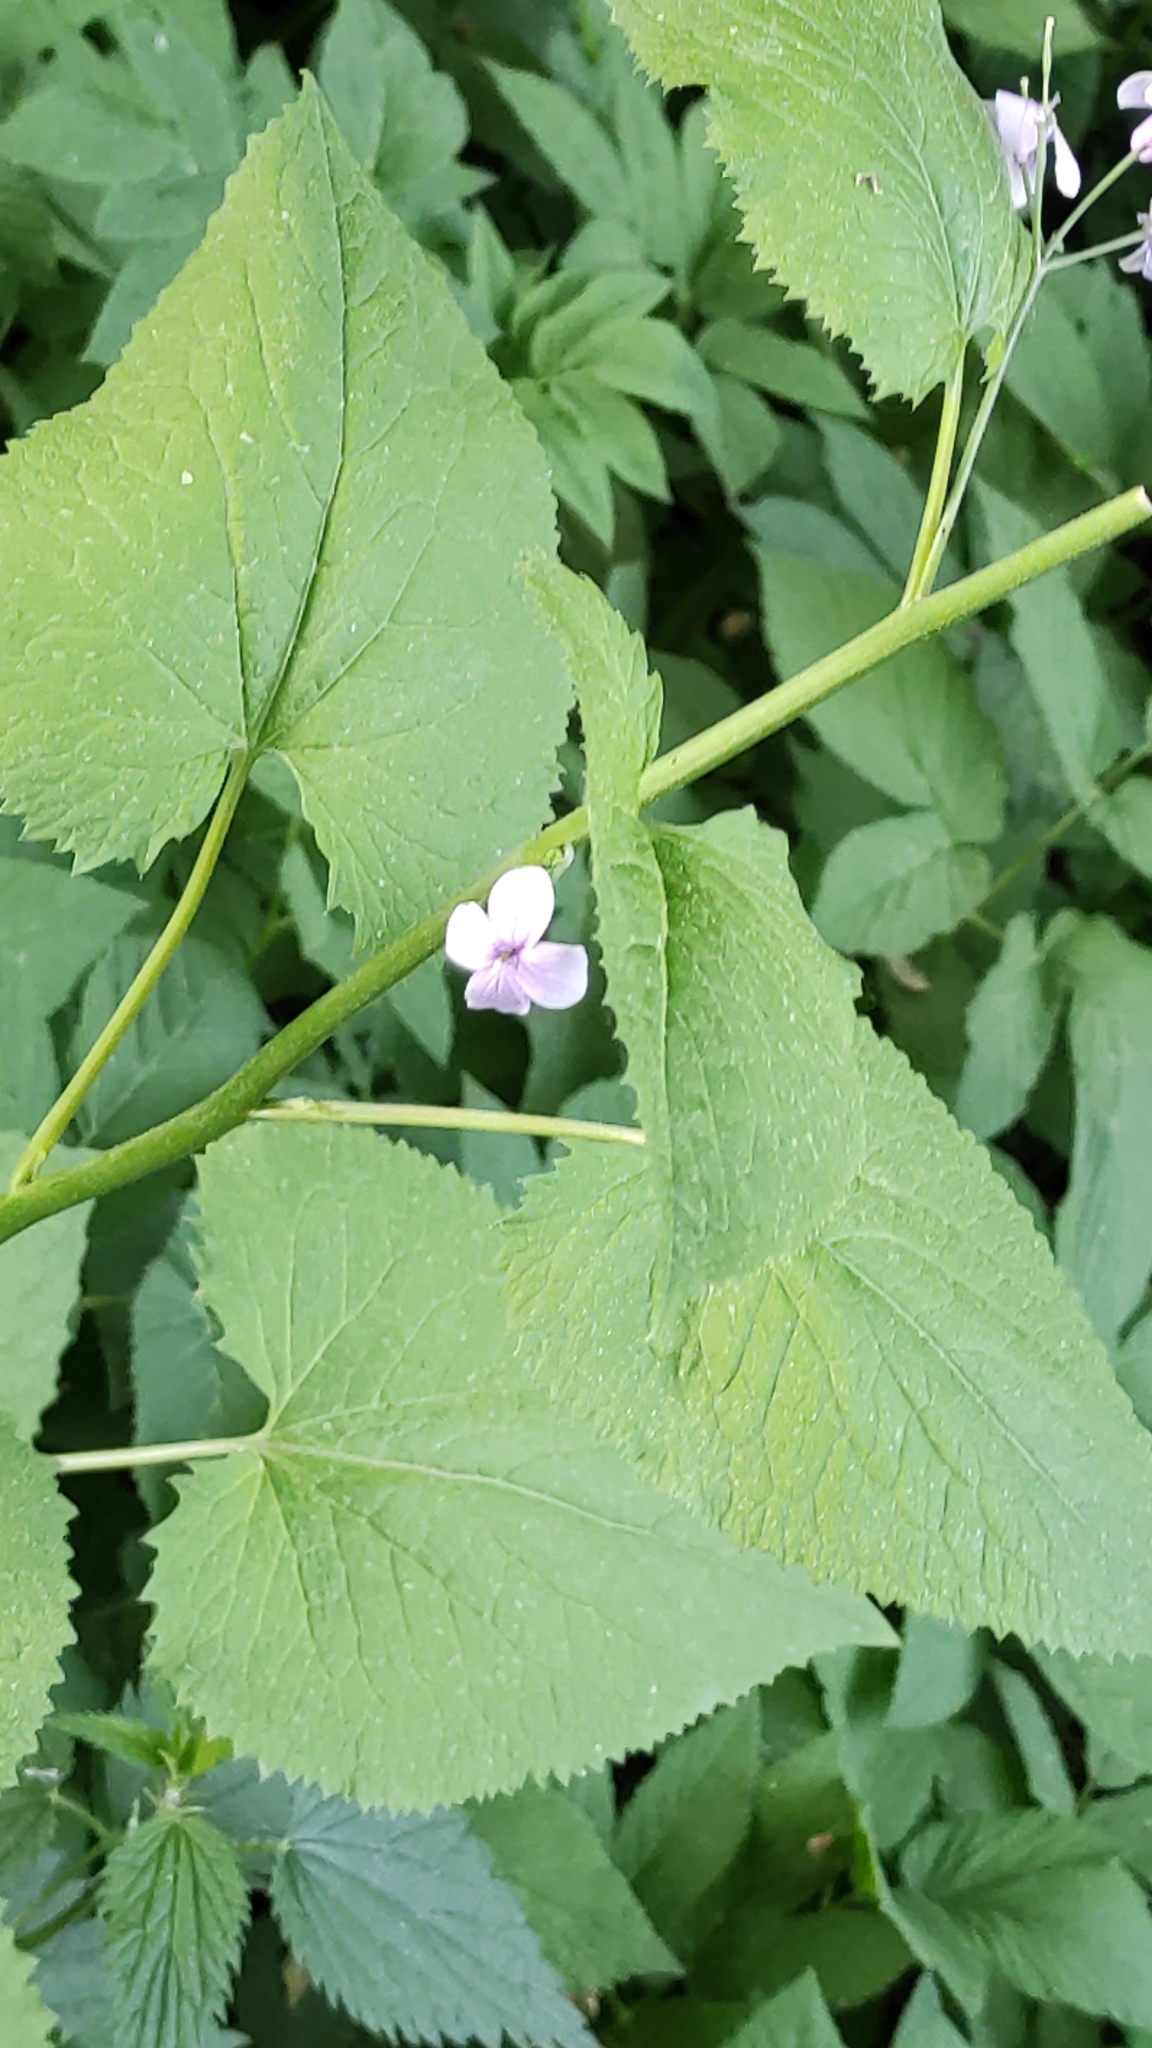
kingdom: Plantae
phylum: Tracheophyta
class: Magnoliopsida
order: Brassicales
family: Brassicaceae
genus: Lunaria
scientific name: Lunaria rediviva
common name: Perennial honesty
